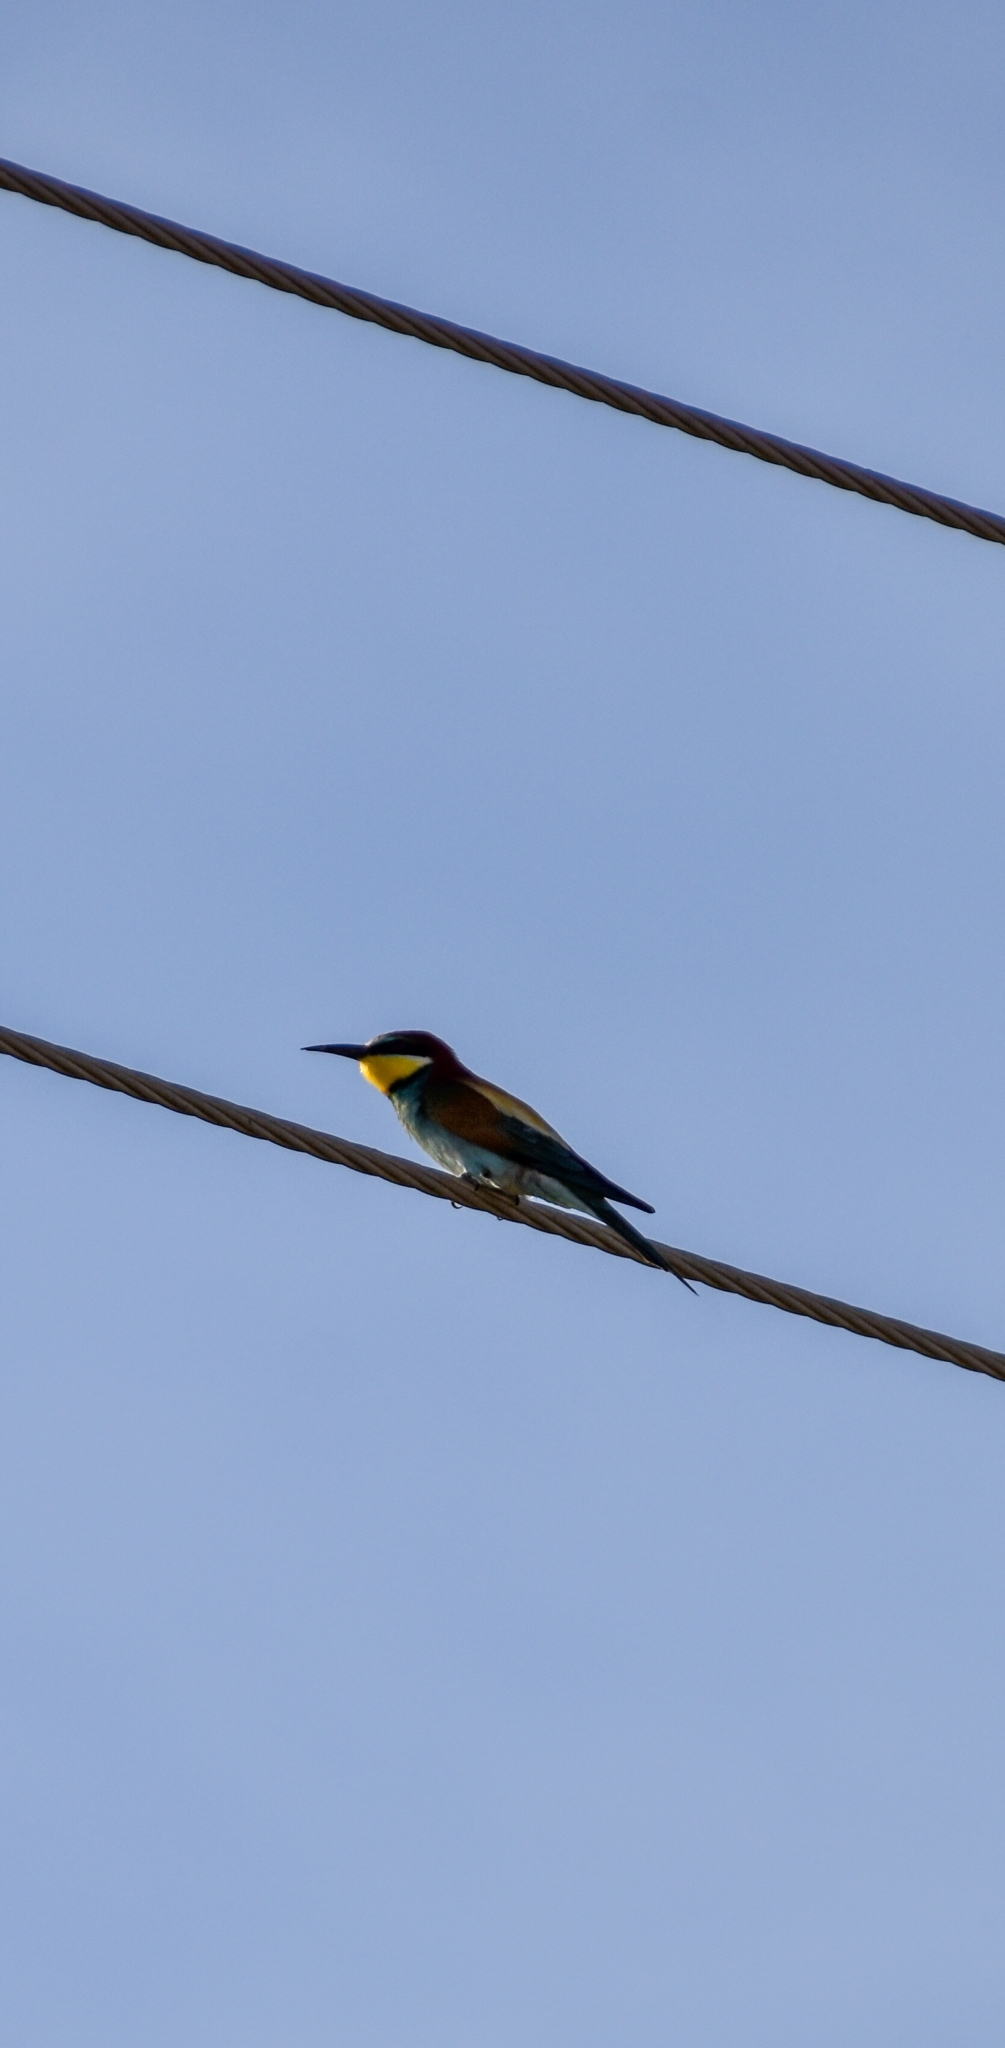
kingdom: Animalia
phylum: Chordata
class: Aves
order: Coraciiformes
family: Meropidae
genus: Merops
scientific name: Merops apiaster
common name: European bee-eater
